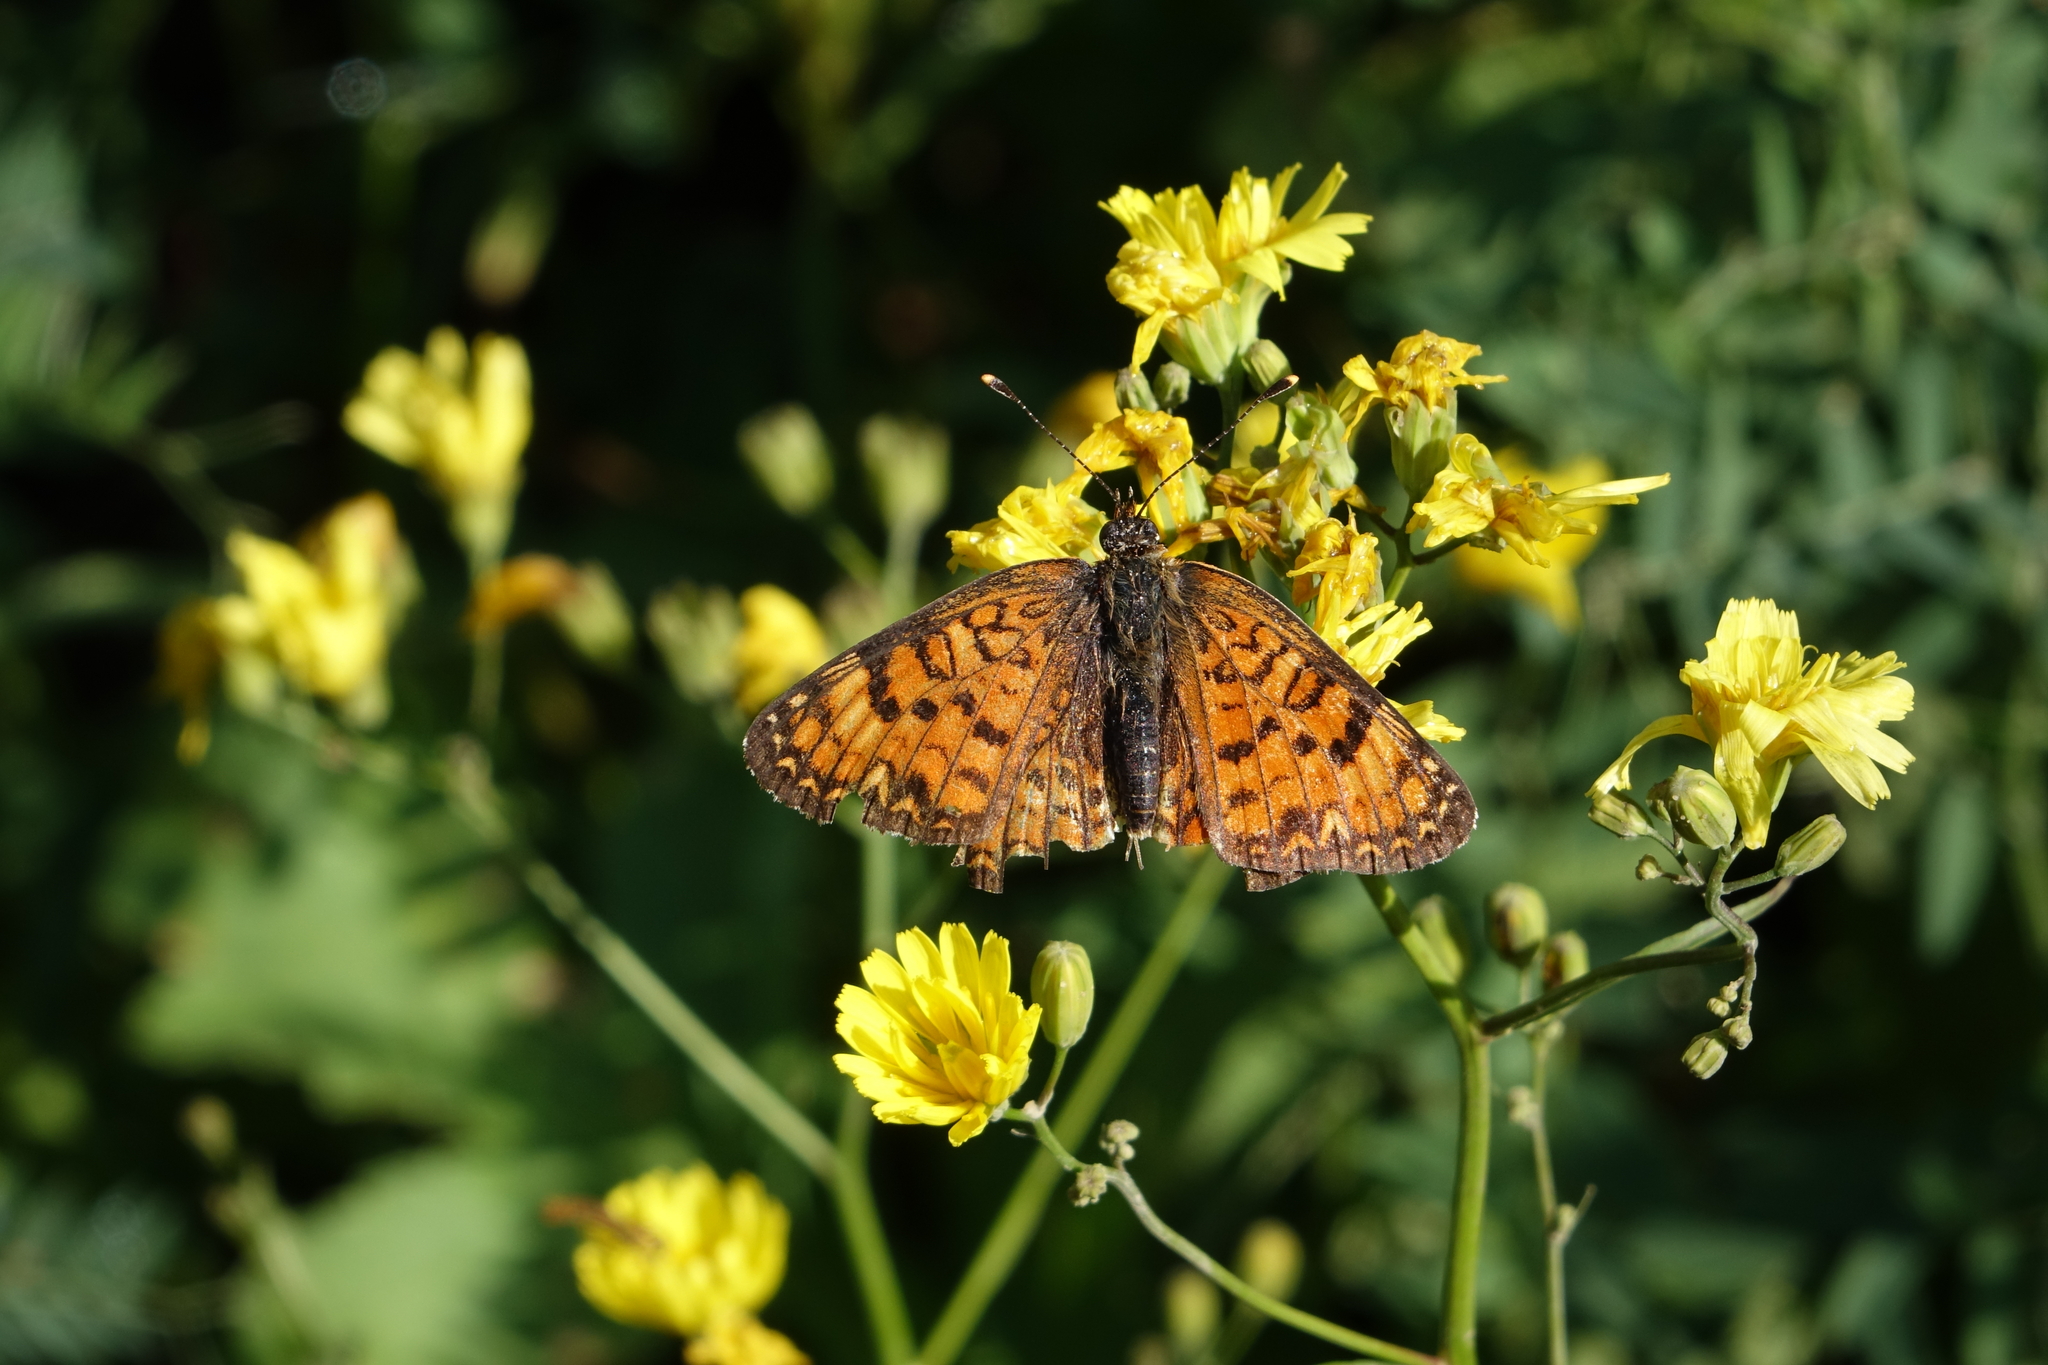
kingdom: Animalia
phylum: Arthropoda
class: Insecta
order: Lepidoptera
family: Nymphalidae
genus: Melitaea
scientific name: Melitaea cinxia
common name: Glanville fritillary
